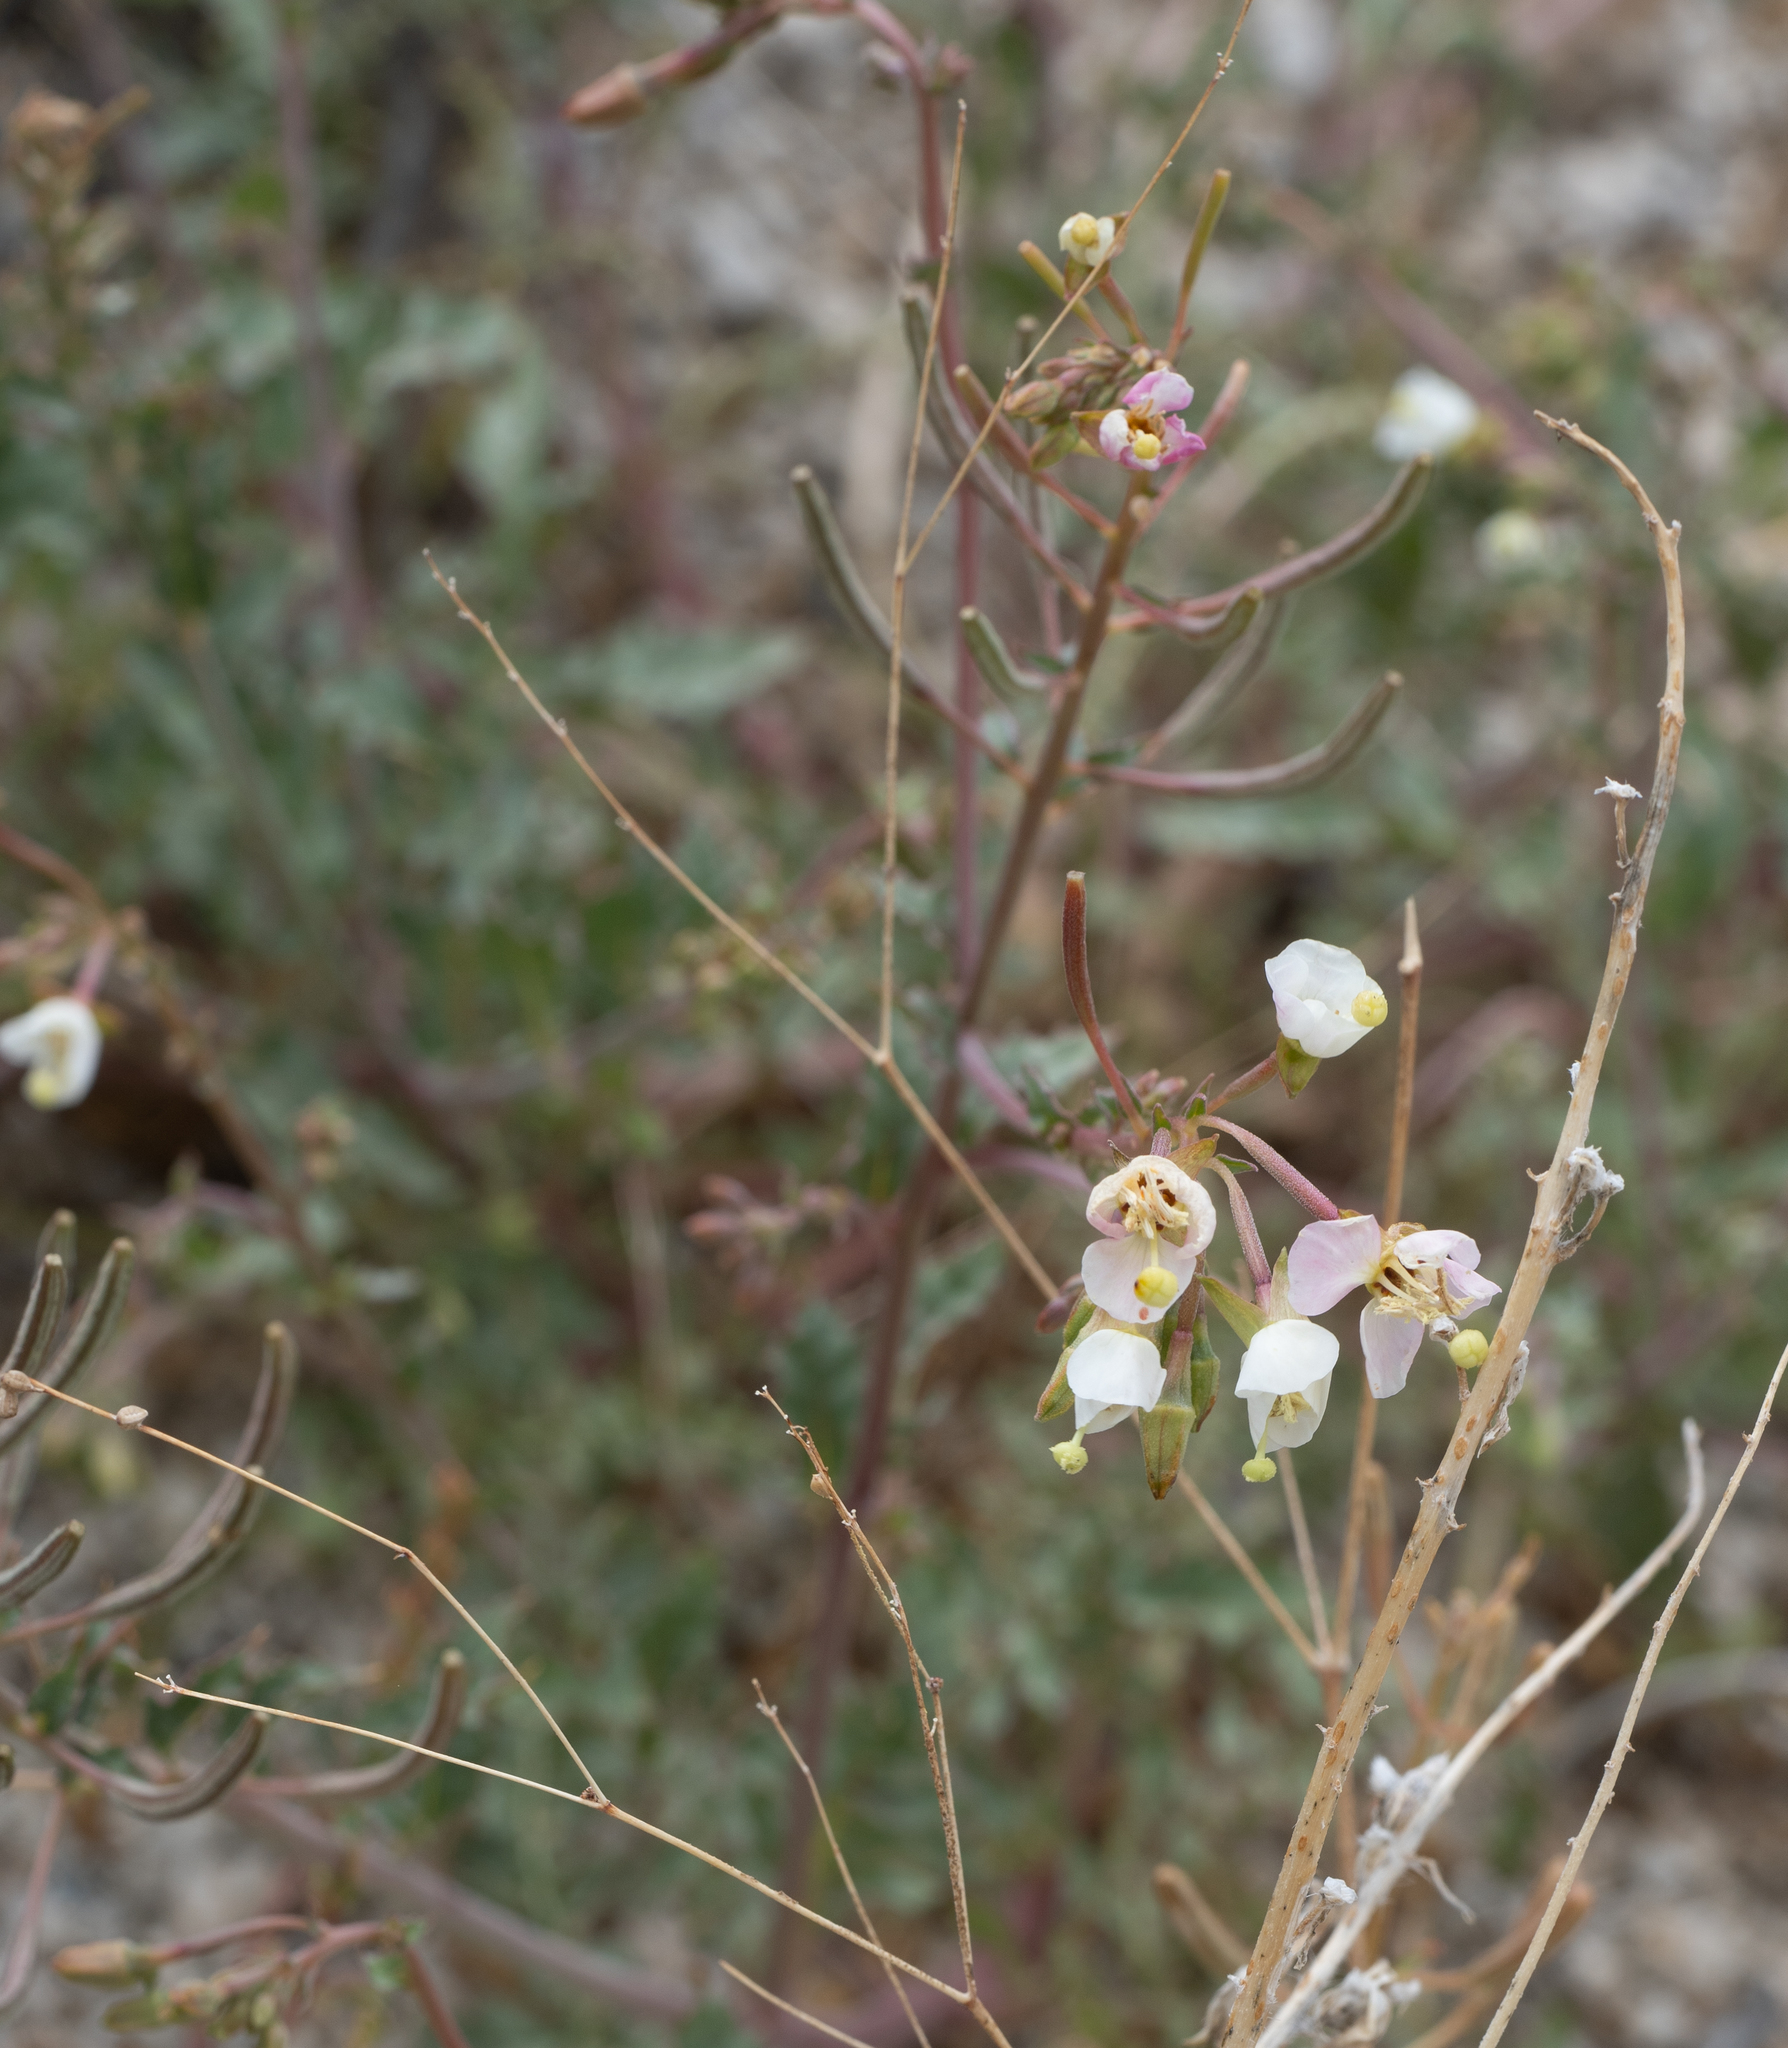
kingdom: Plantae
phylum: Tracheophyta
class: Magnoliopsida
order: Myrtales
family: Onagraceae
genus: Chylismia
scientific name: Chylismia claviformis
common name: Browneyes
